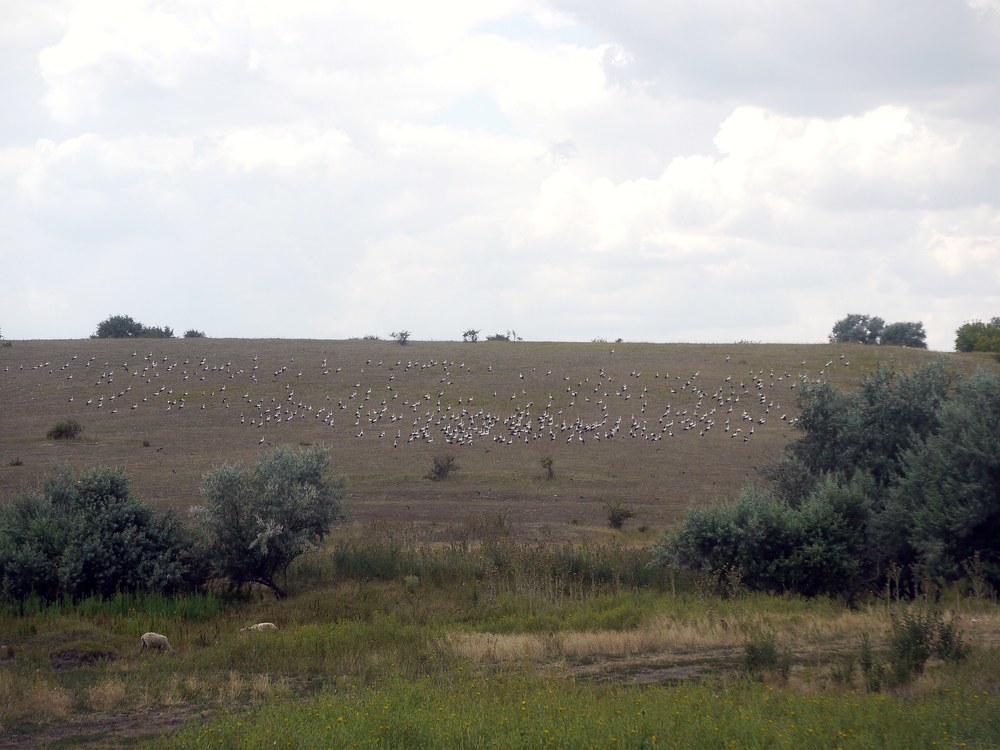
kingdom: Animalia
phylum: Chordata
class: Aves
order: Ciconiiformes
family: Ciconiidae
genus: Ciconia
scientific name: Ciconia ciconia
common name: White stork
